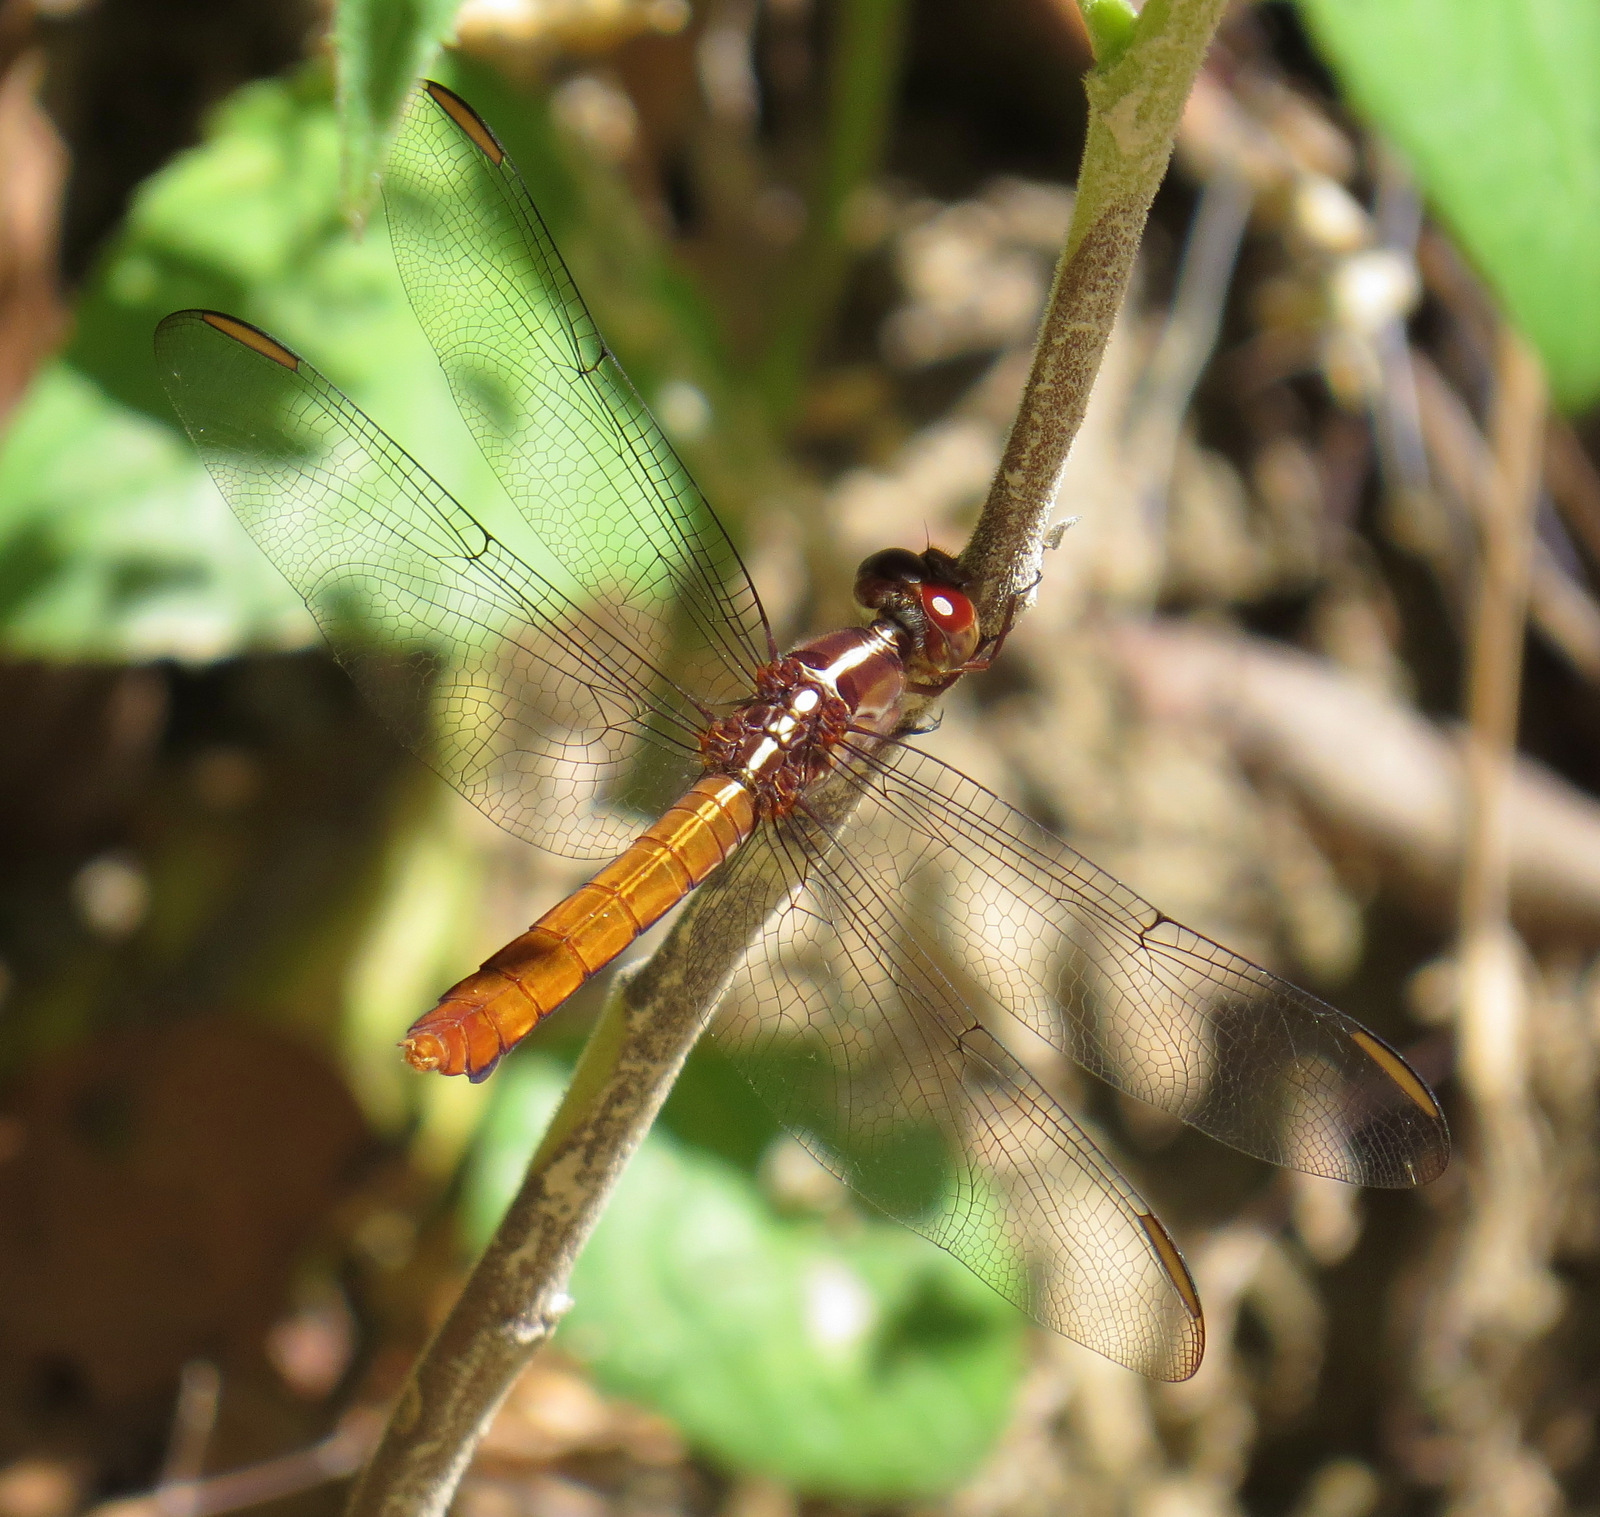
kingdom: Animalia
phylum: Arthropoda
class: Insecta
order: Odonata
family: Libellulidae
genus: Orthemis
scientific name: Orthemis discolor
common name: Carmine skimmer
